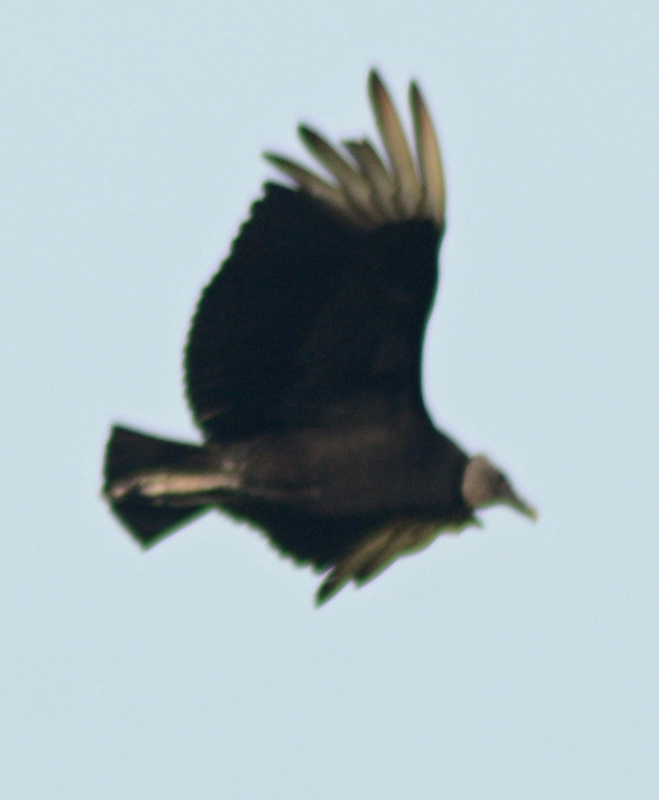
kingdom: Animalia
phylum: Chordata
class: Aves
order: Accipitriformes
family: Cathartidae
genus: Coragyps
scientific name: Coragyps atratus
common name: Black vulture
